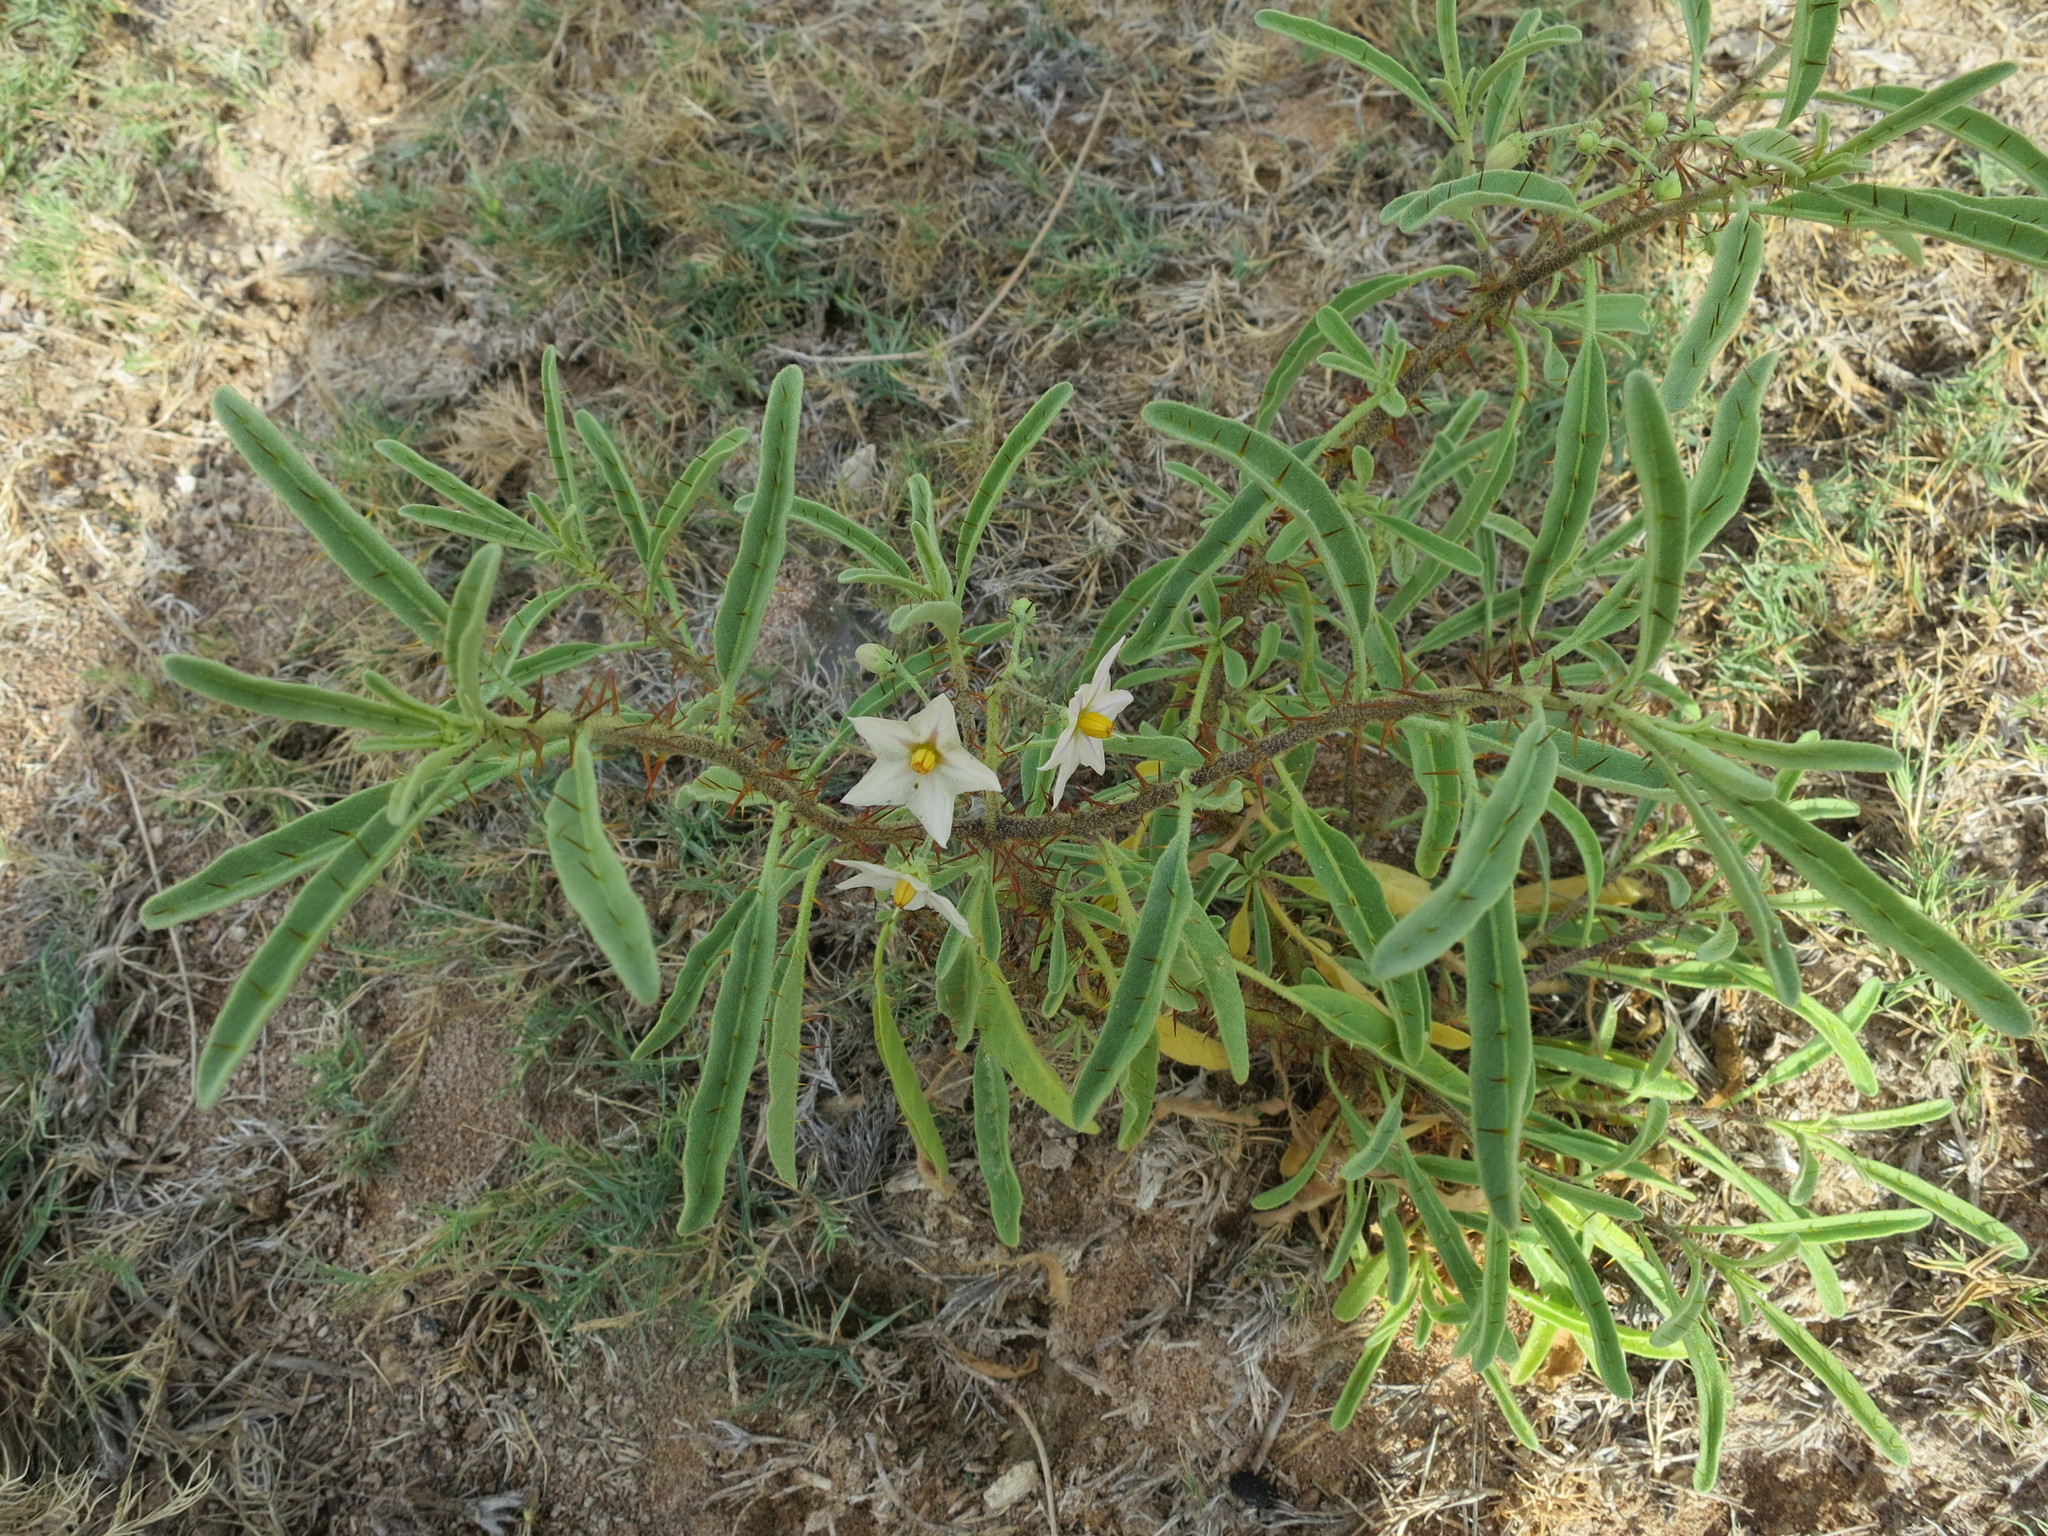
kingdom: Plantae
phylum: Tracheophyta
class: Magnoliopsida
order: Solanales
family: Solanaceae
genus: Solanum
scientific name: Solanum bumeliifolium
